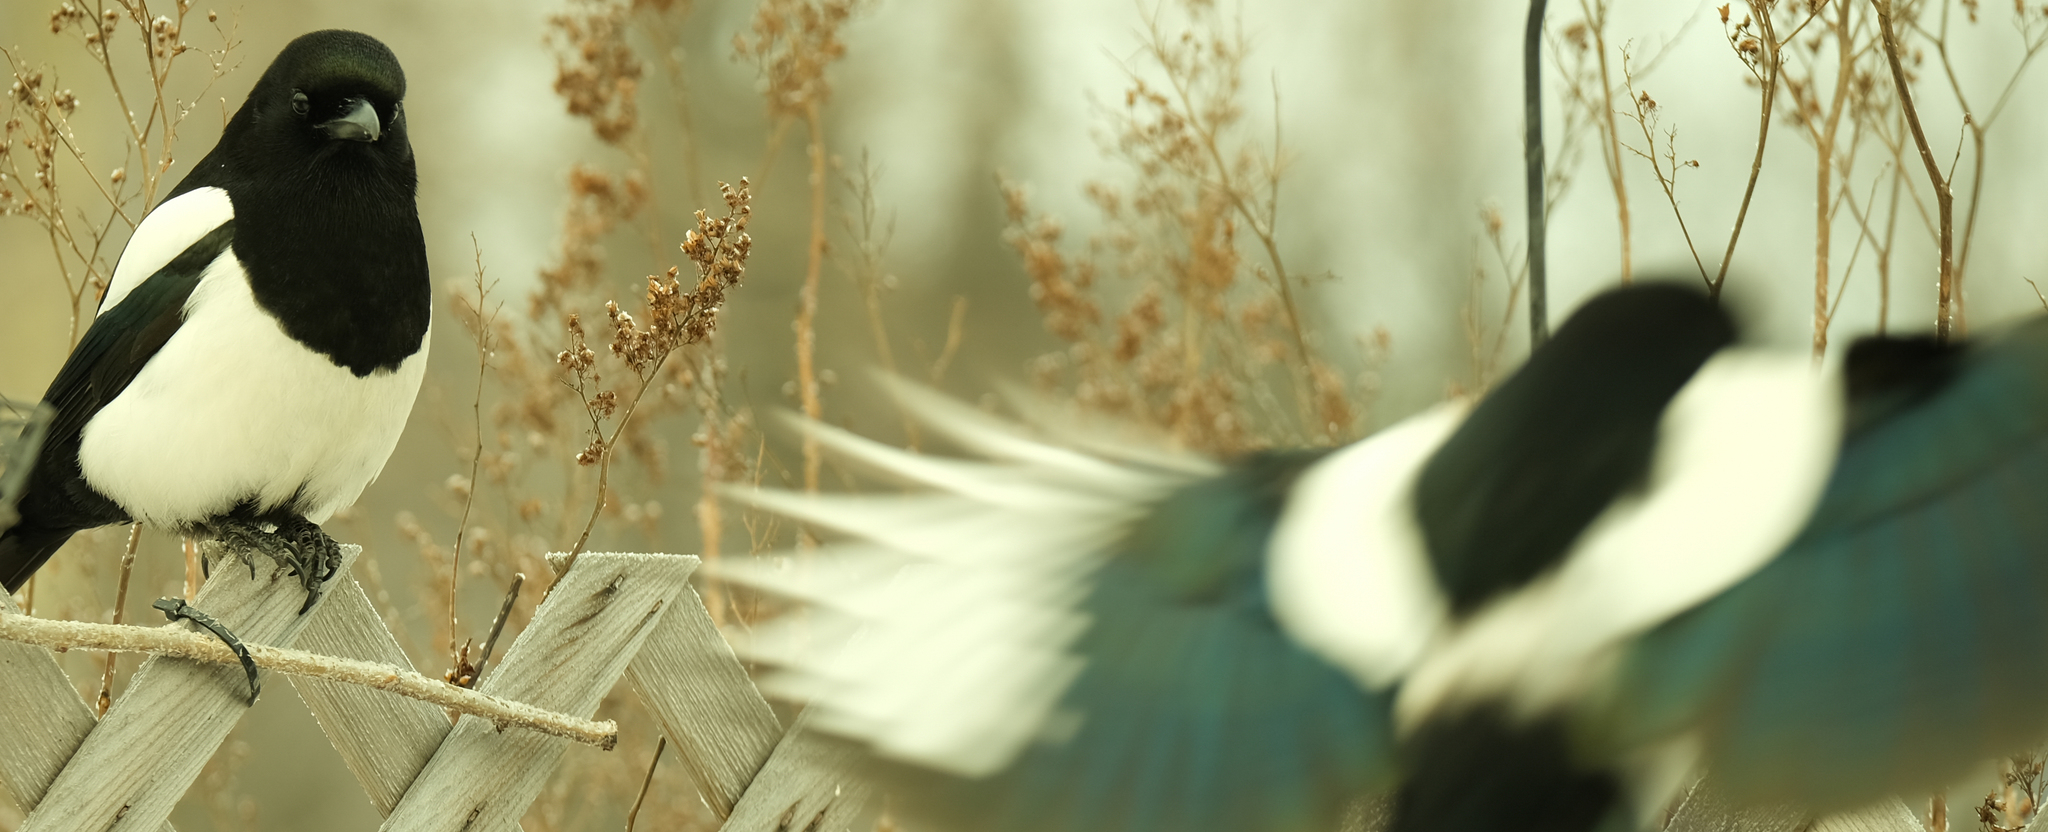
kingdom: Animalia
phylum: Chordata
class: Aves
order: Passeriformes
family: Corvidae
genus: Pica
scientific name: Pica hudsonia
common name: Black-billed magpie
